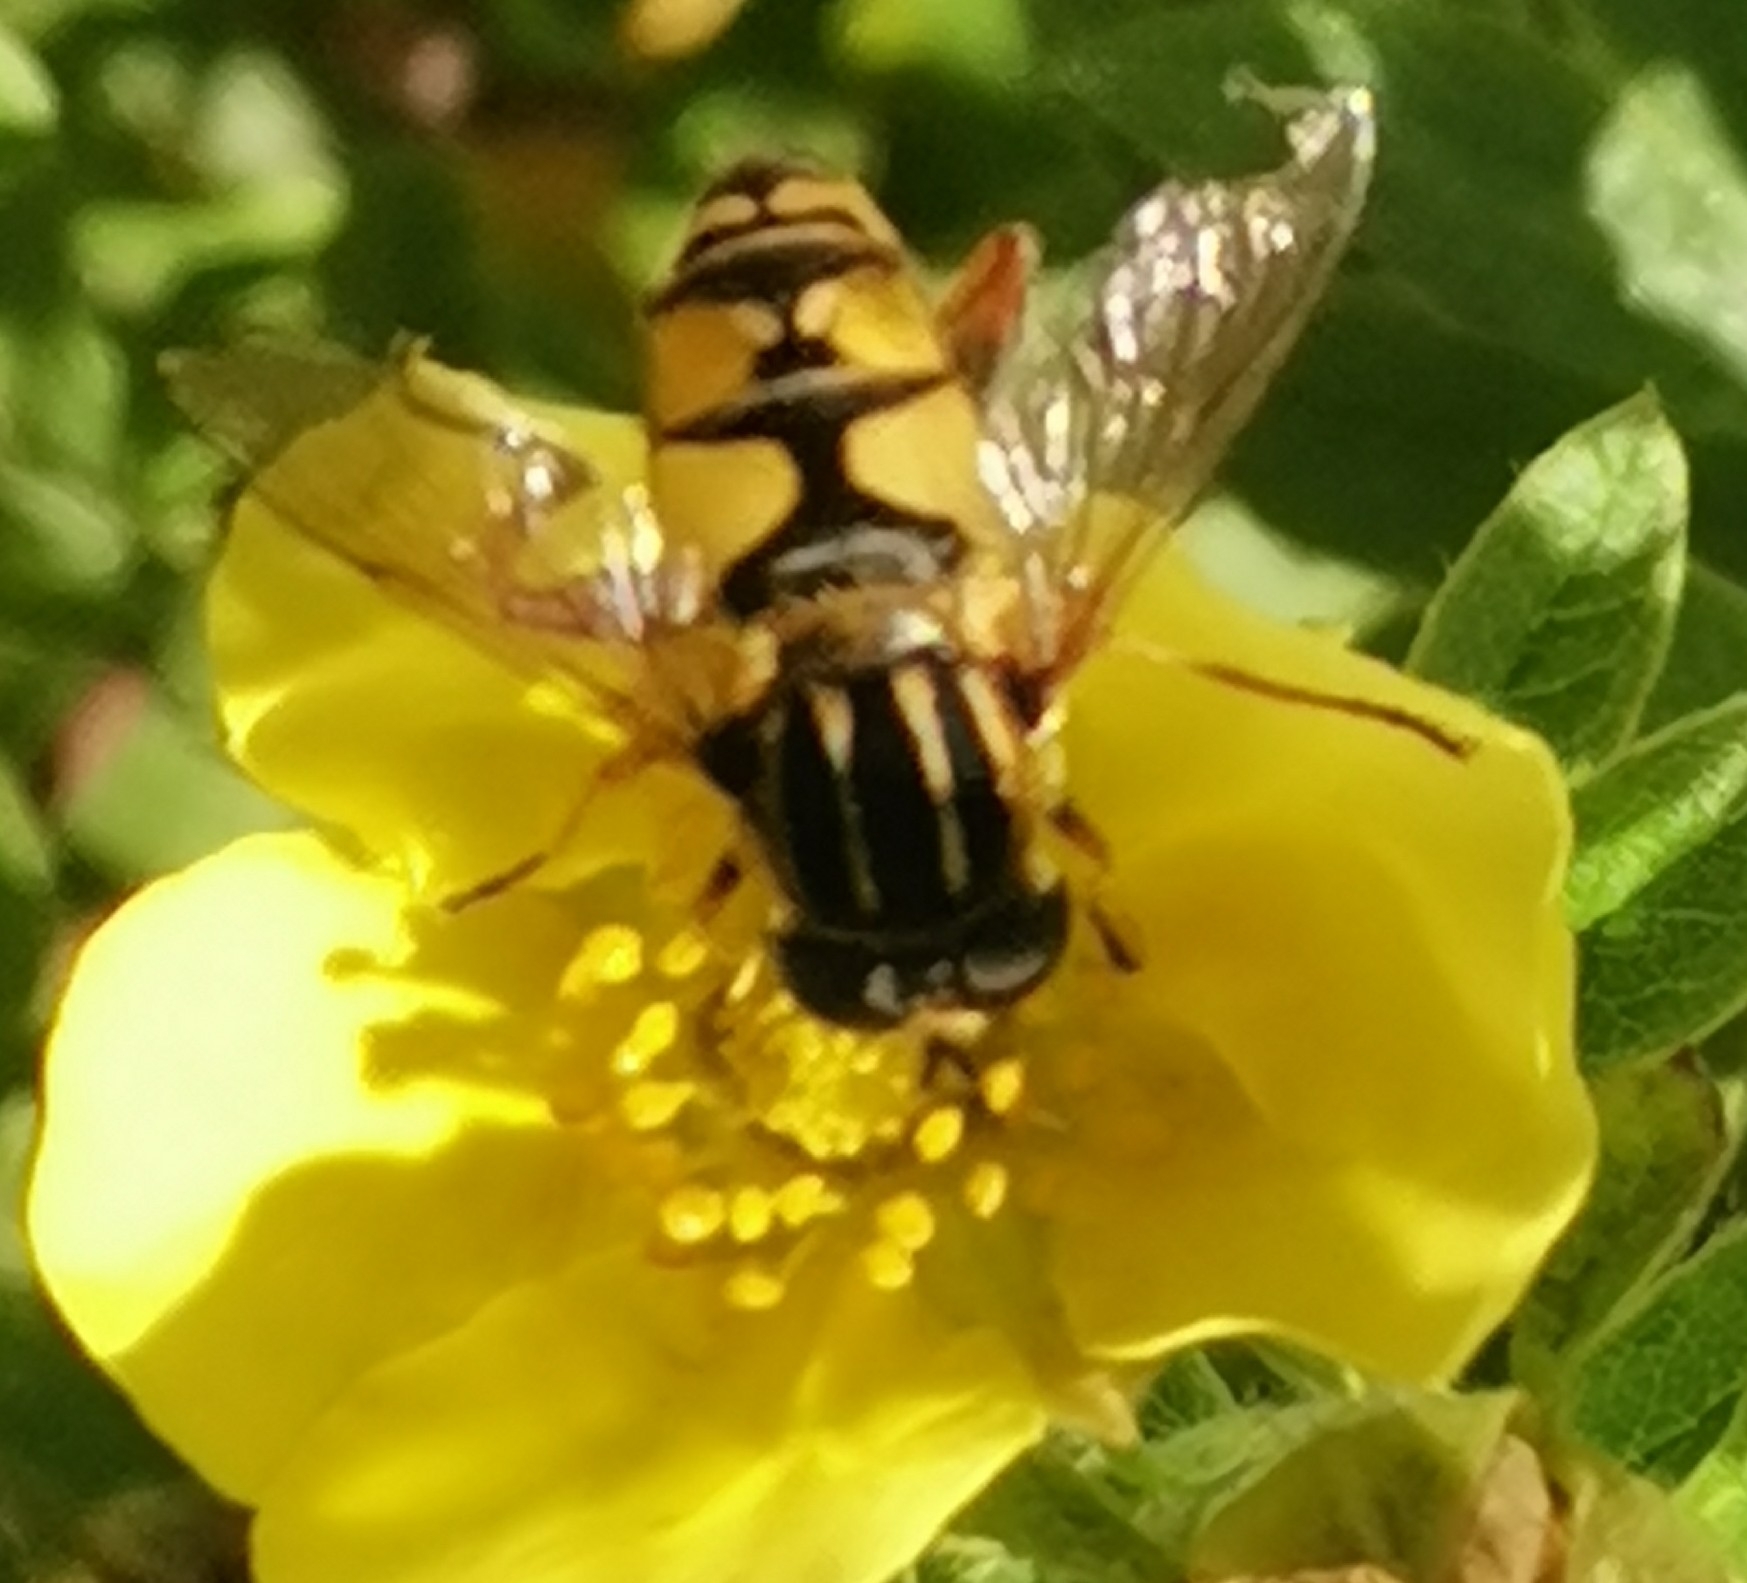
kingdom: Animalia
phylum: Arthropoda
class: Insecta
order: Diptera
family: Syrphidae
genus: Helophilus
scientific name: Helophilus pendulus
